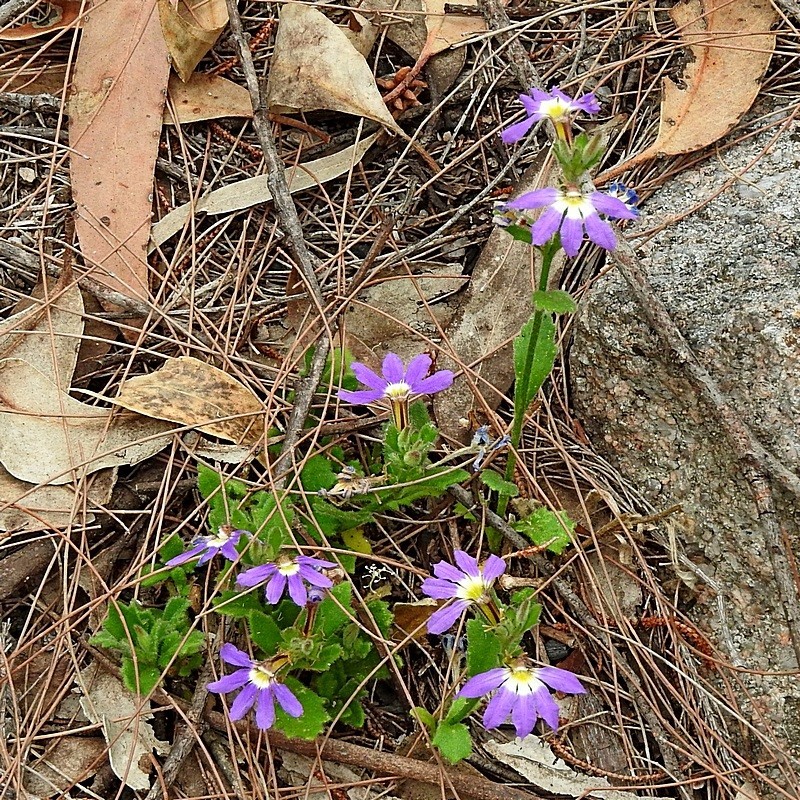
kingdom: Plantae
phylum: Tracheophyta
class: Magnoliopsida
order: Asterales
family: Goodeniaceae
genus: Scaevola
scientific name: Scaevola aemula
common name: Common fanflower
